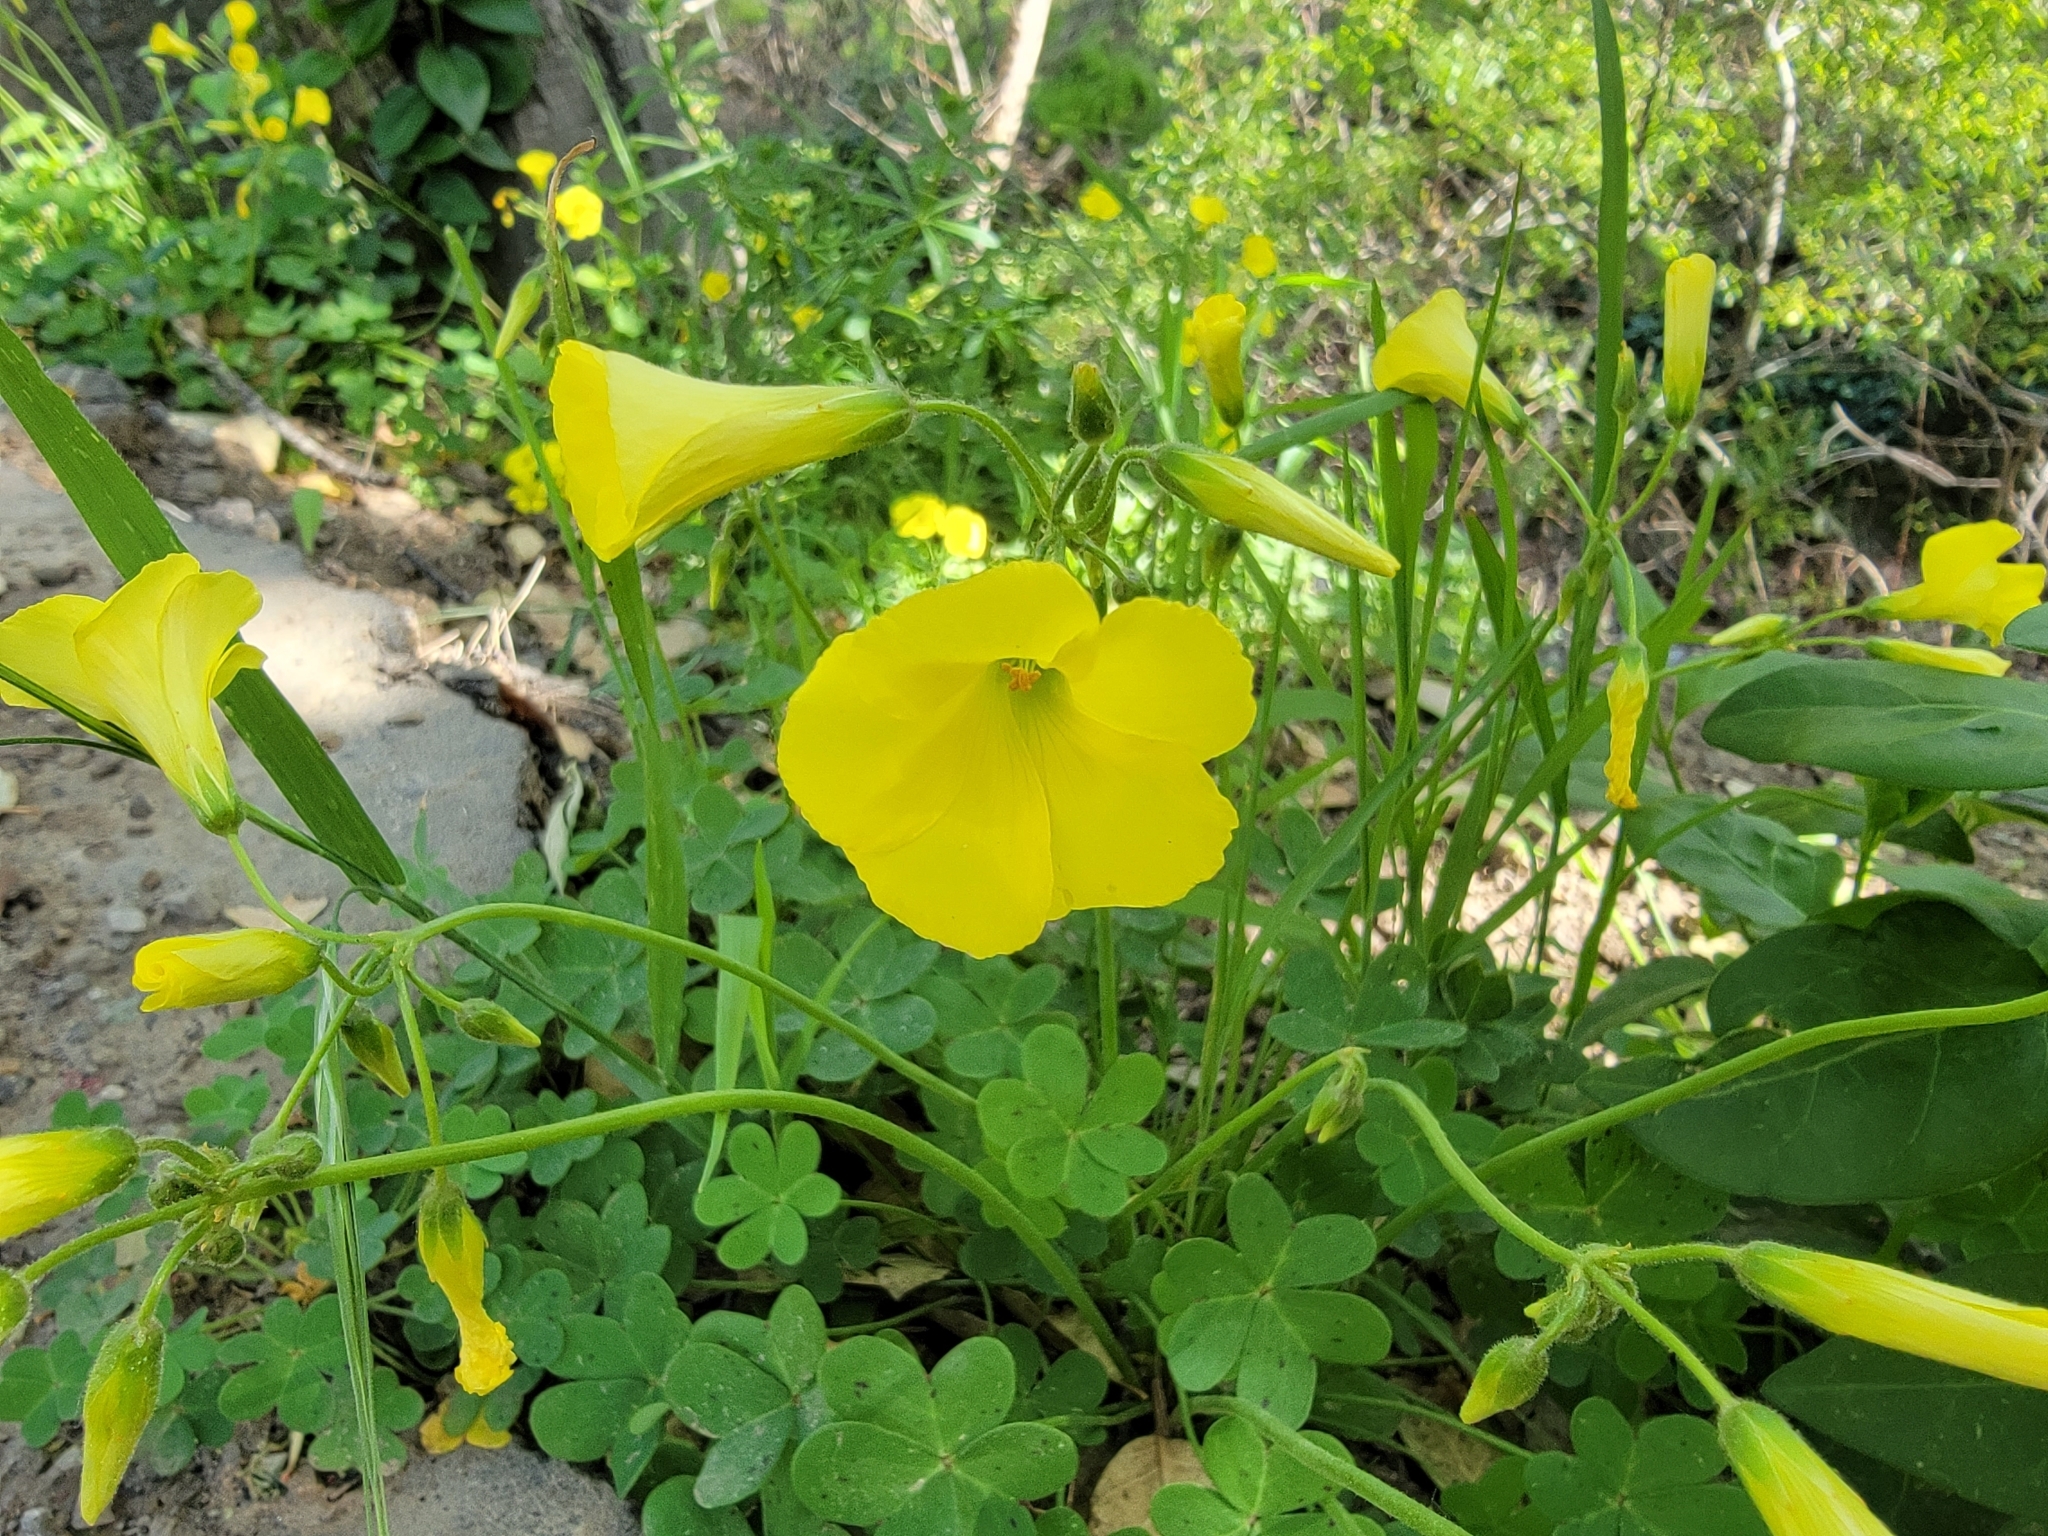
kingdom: Plantae
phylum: Tracheophyta
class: Magnoliopsida
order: Oxalidales
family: Oxalidaceae
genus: Oxalis
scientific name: Oxalis pes-caprae
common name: Bermuda-buttercup
